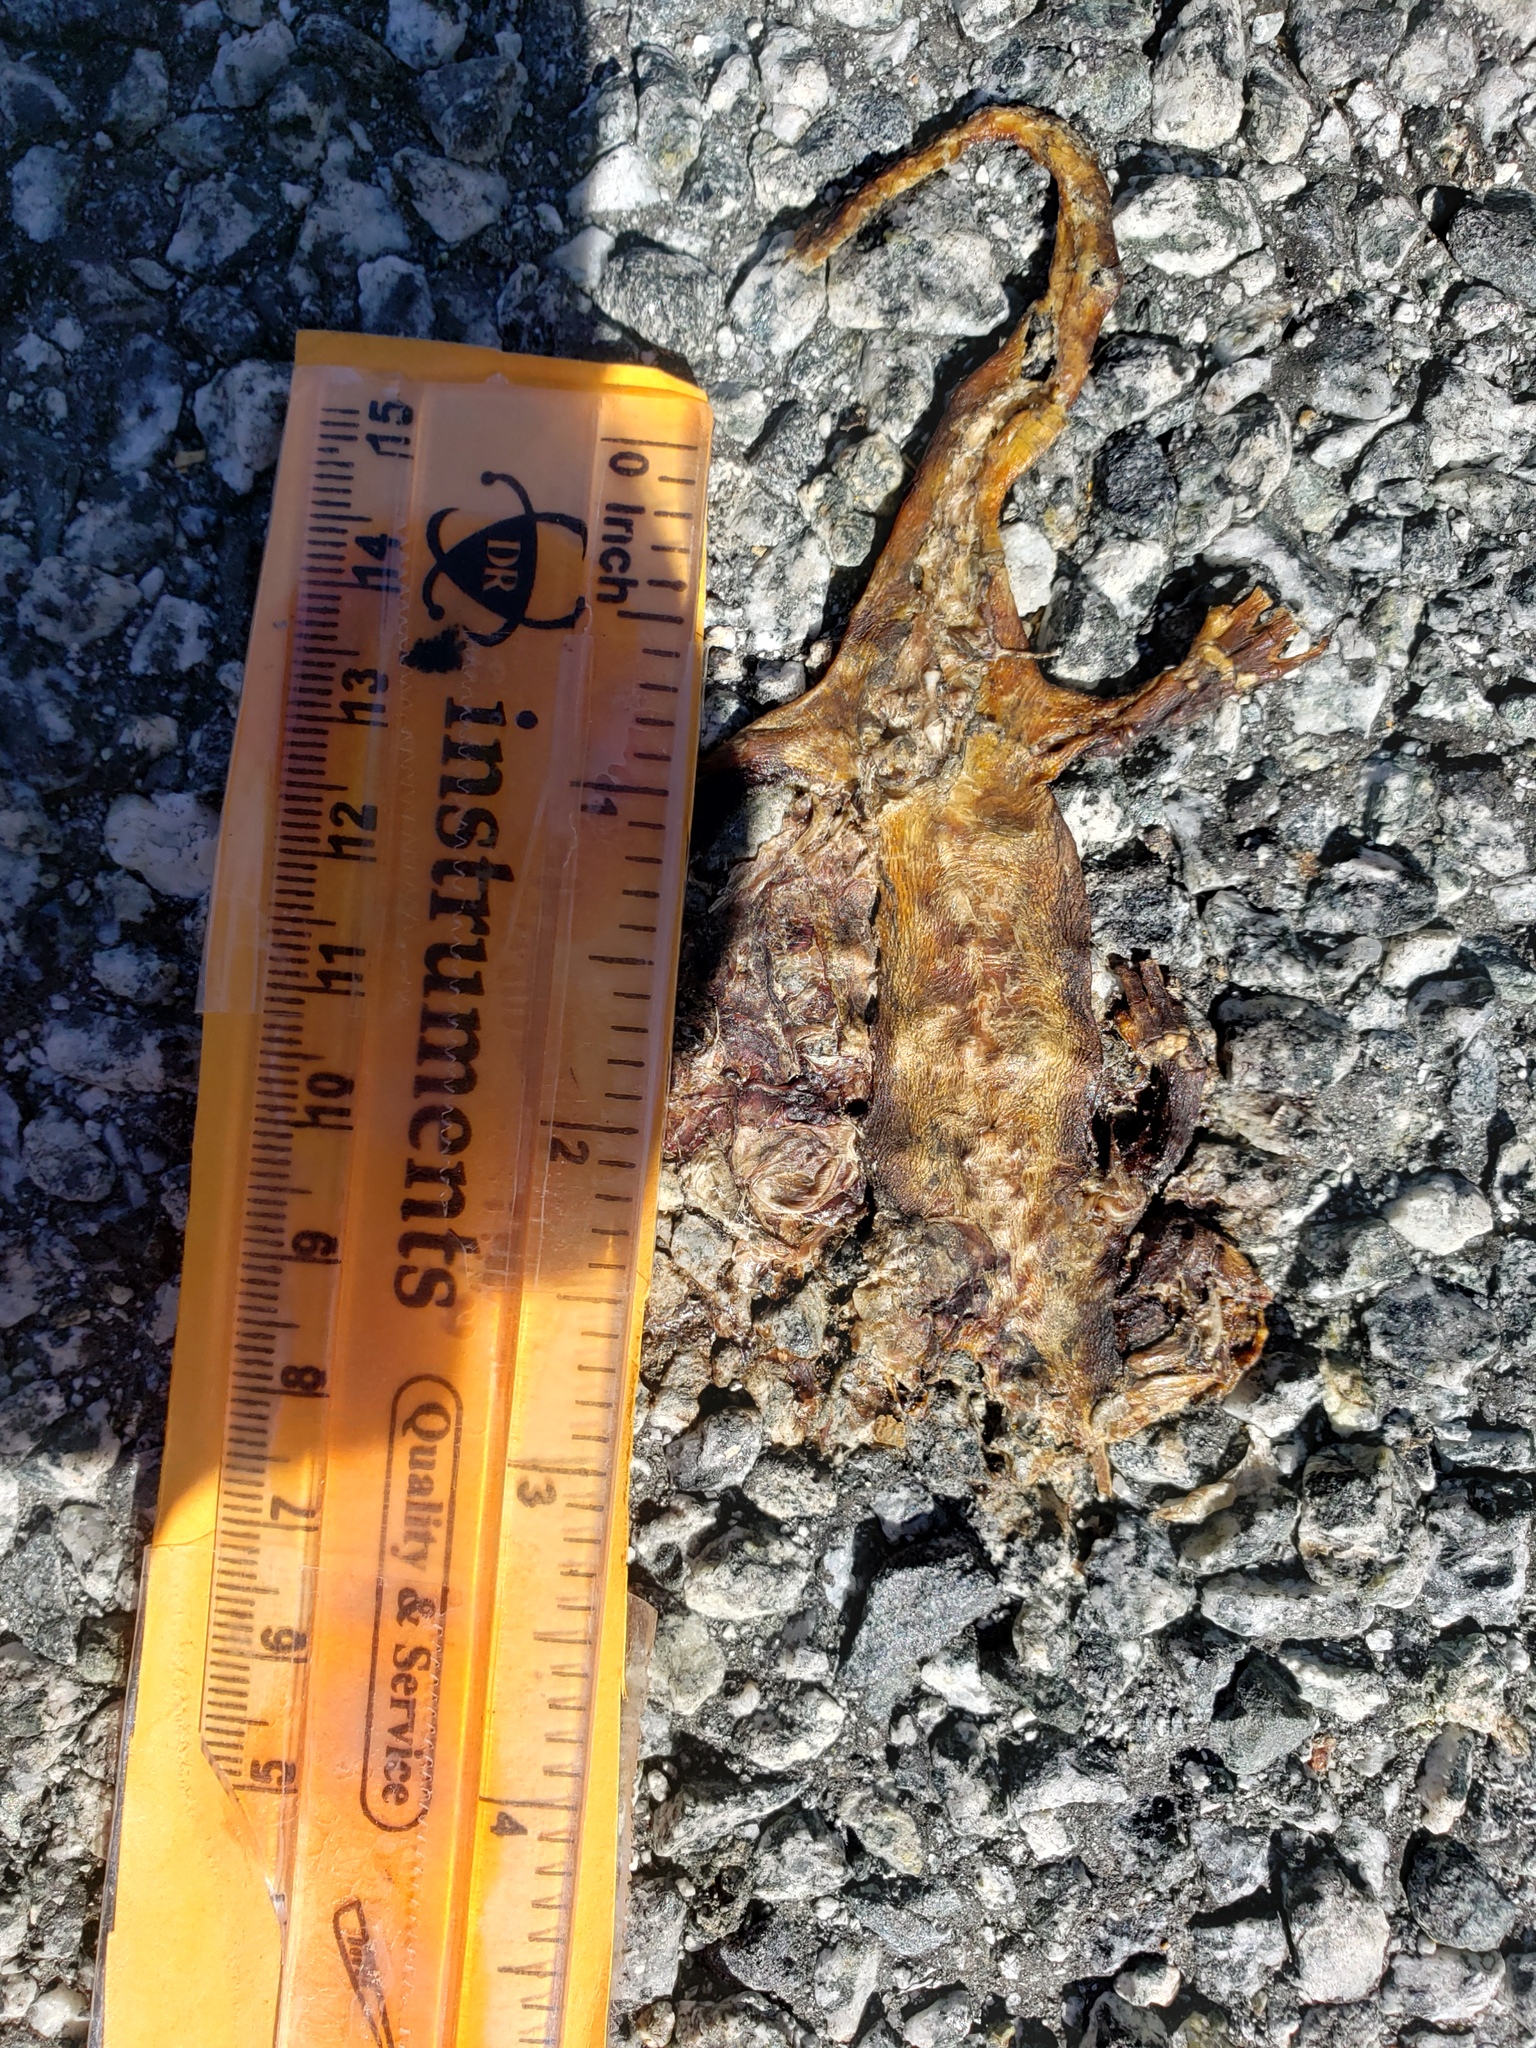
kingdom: Animalia
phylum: Chordata
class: Amphibia
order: Caudata
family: Salamandridae
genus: Taricha
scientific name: Taricha
